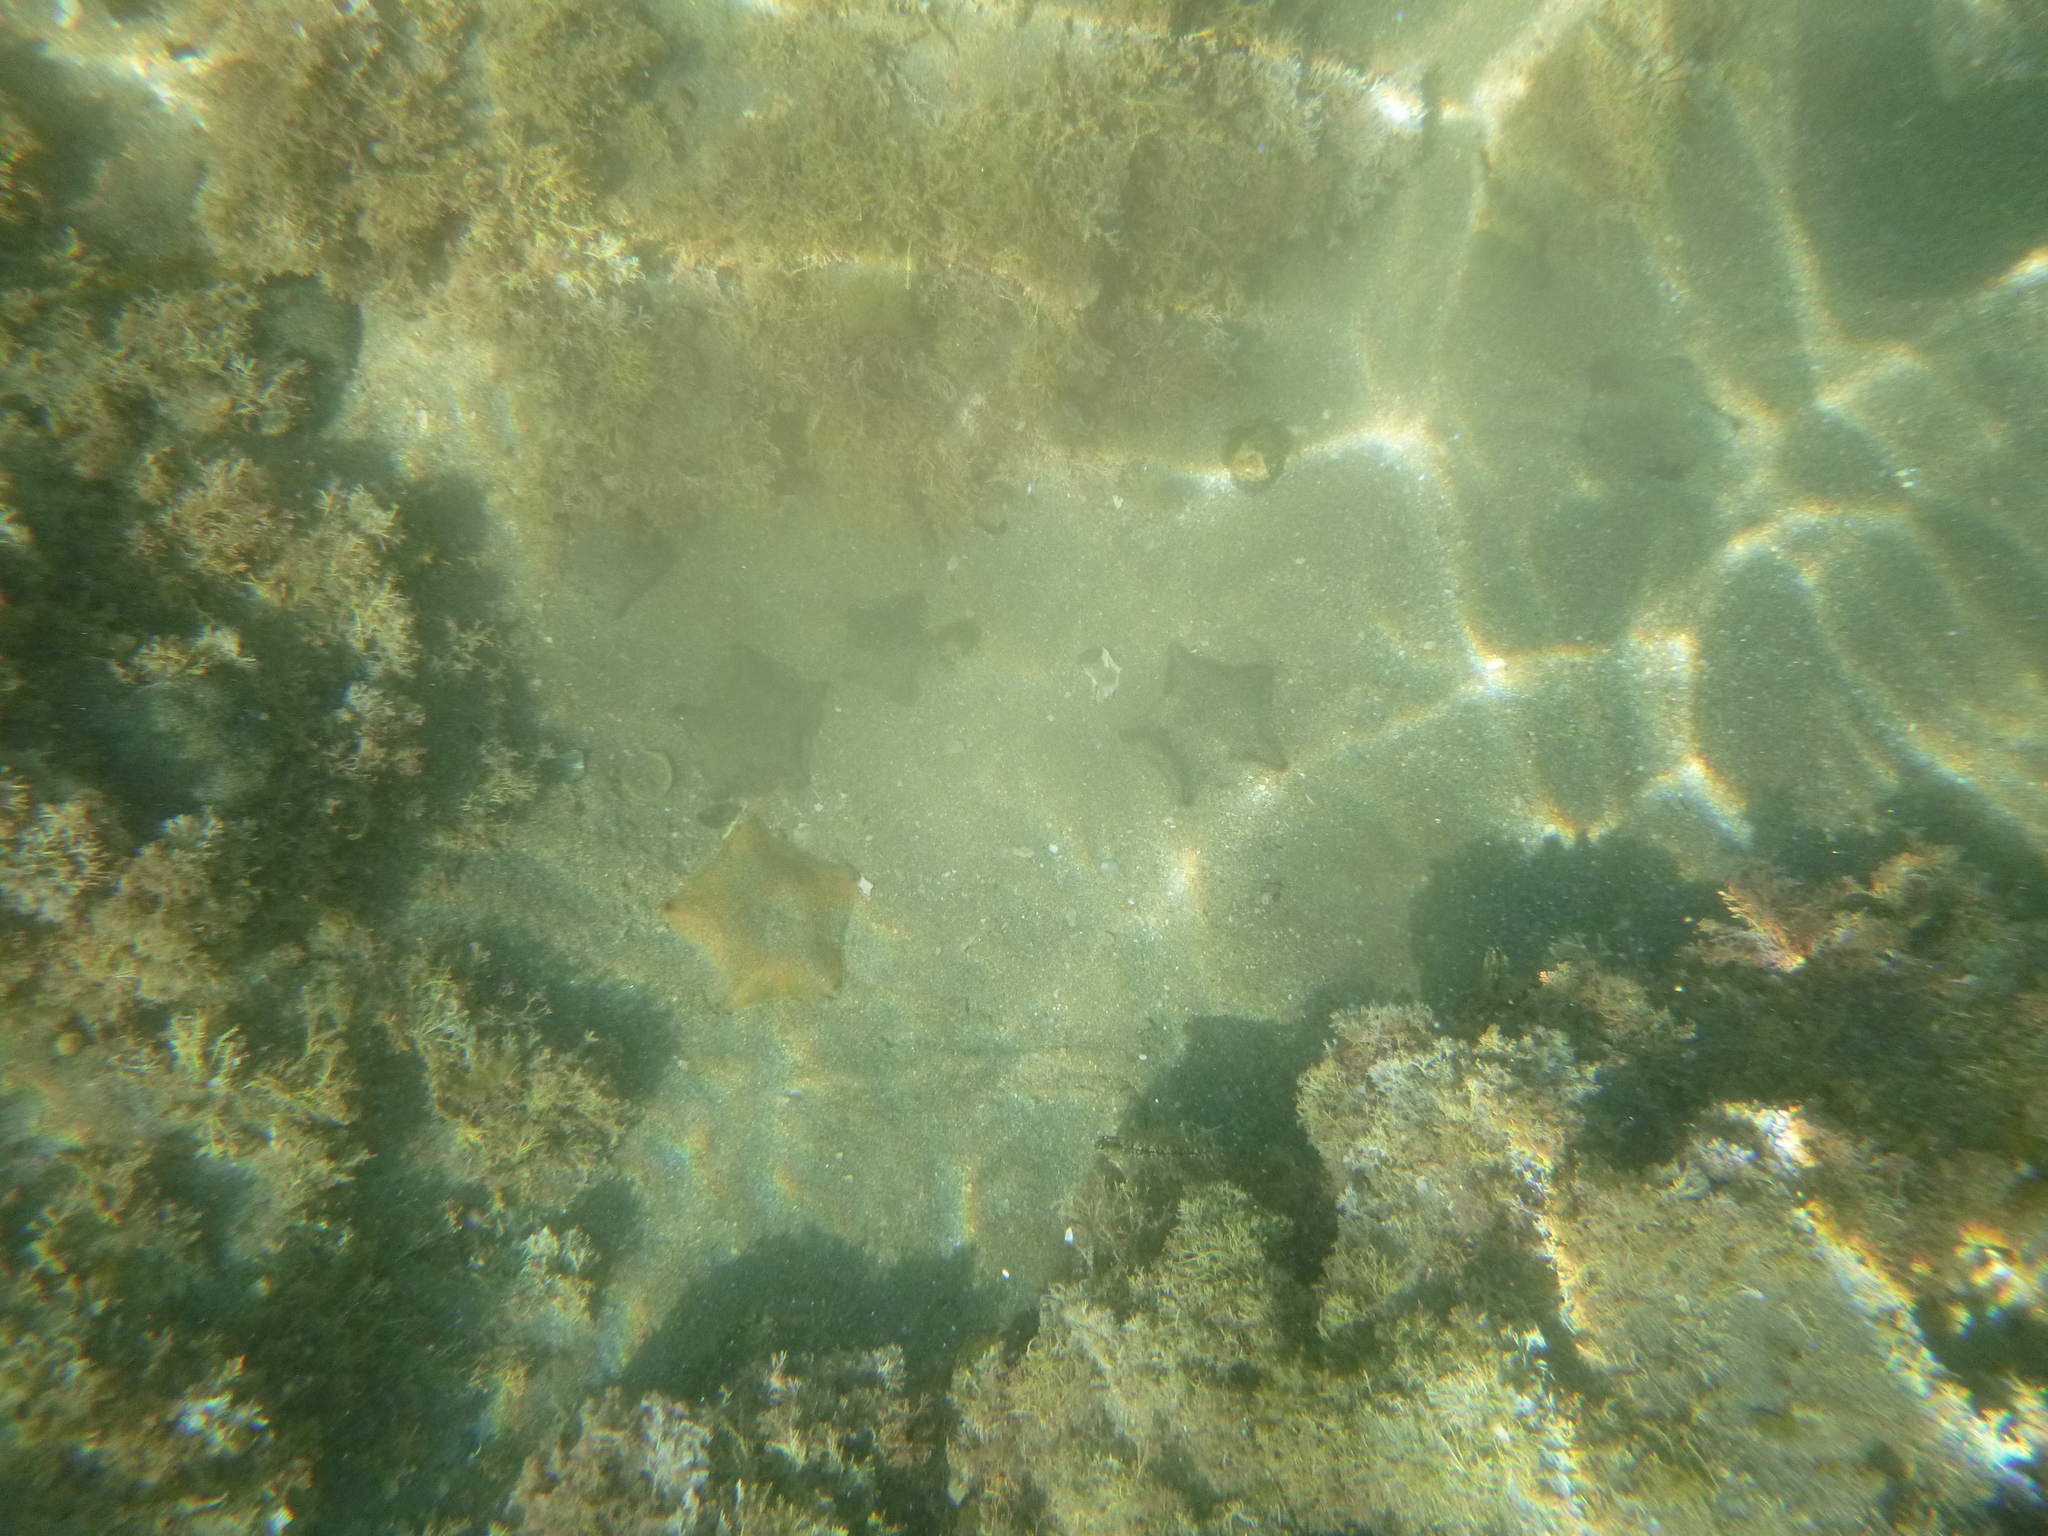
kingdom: Animalia
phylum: Echinodermata
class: Asteroidea
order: Valvatida
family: Asterinidae
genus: Patiriella
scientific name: Patiriella regularis
